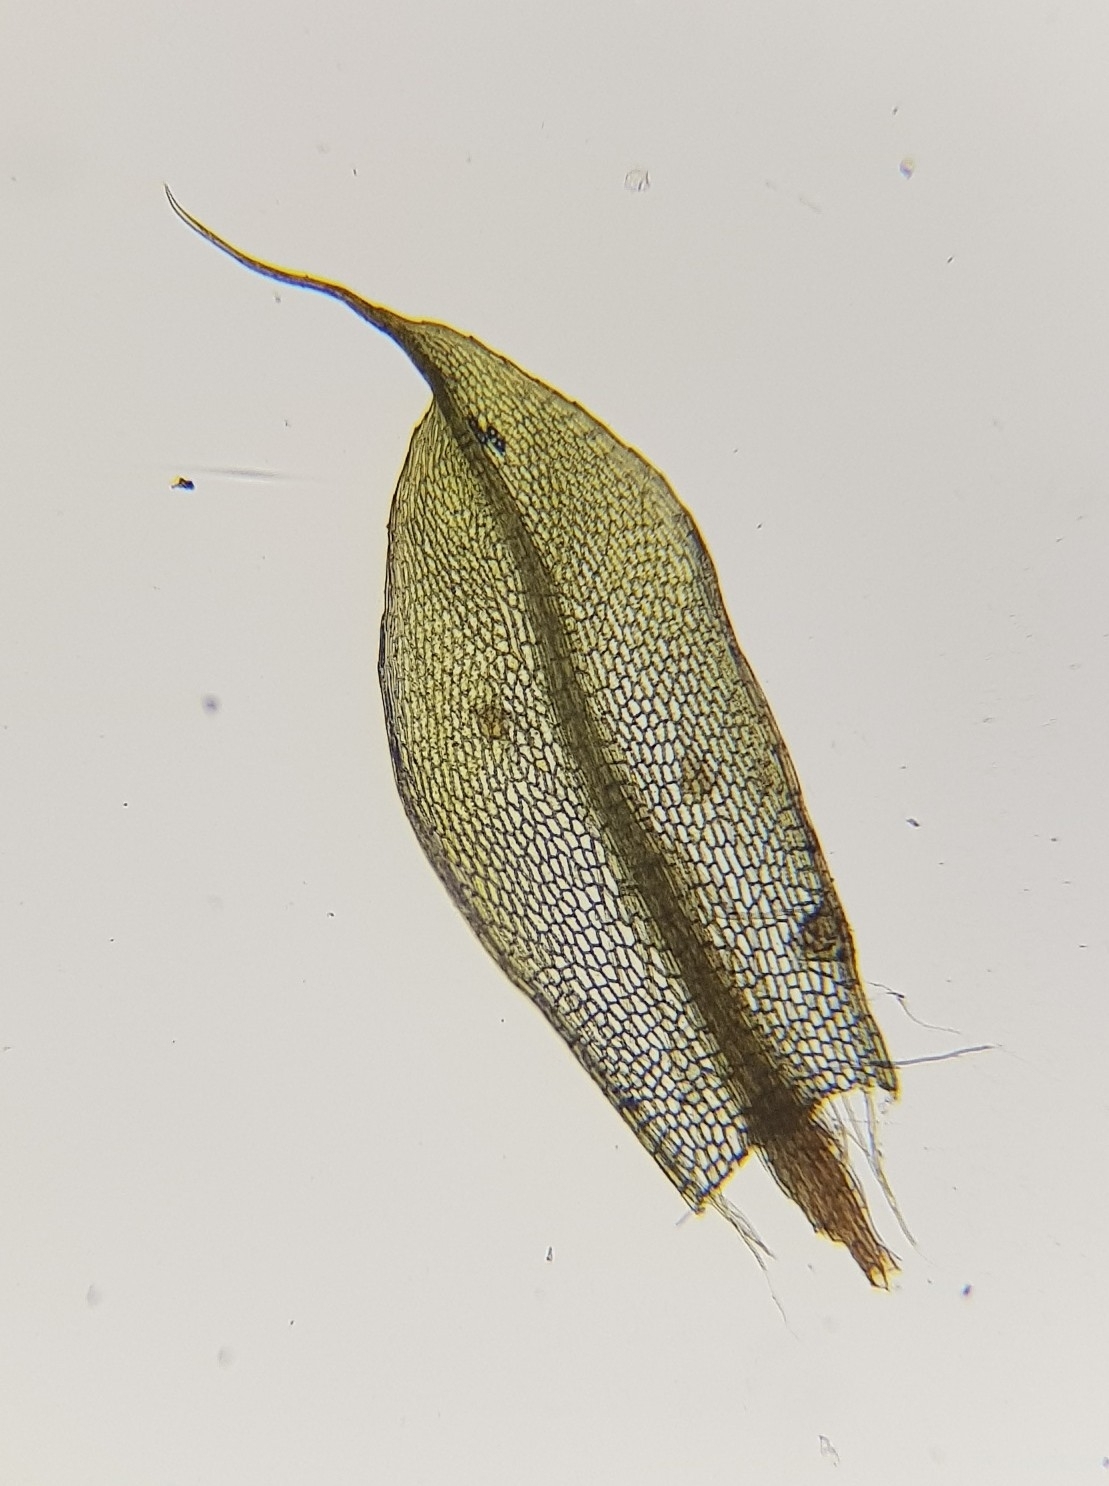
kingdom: Plantae
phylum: Bryophyta
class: Bryopsida
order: Bryales
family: Bryaceae
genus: Rosulabryum
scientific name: Rosulabryum capillare
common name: Capillary thread-moss
